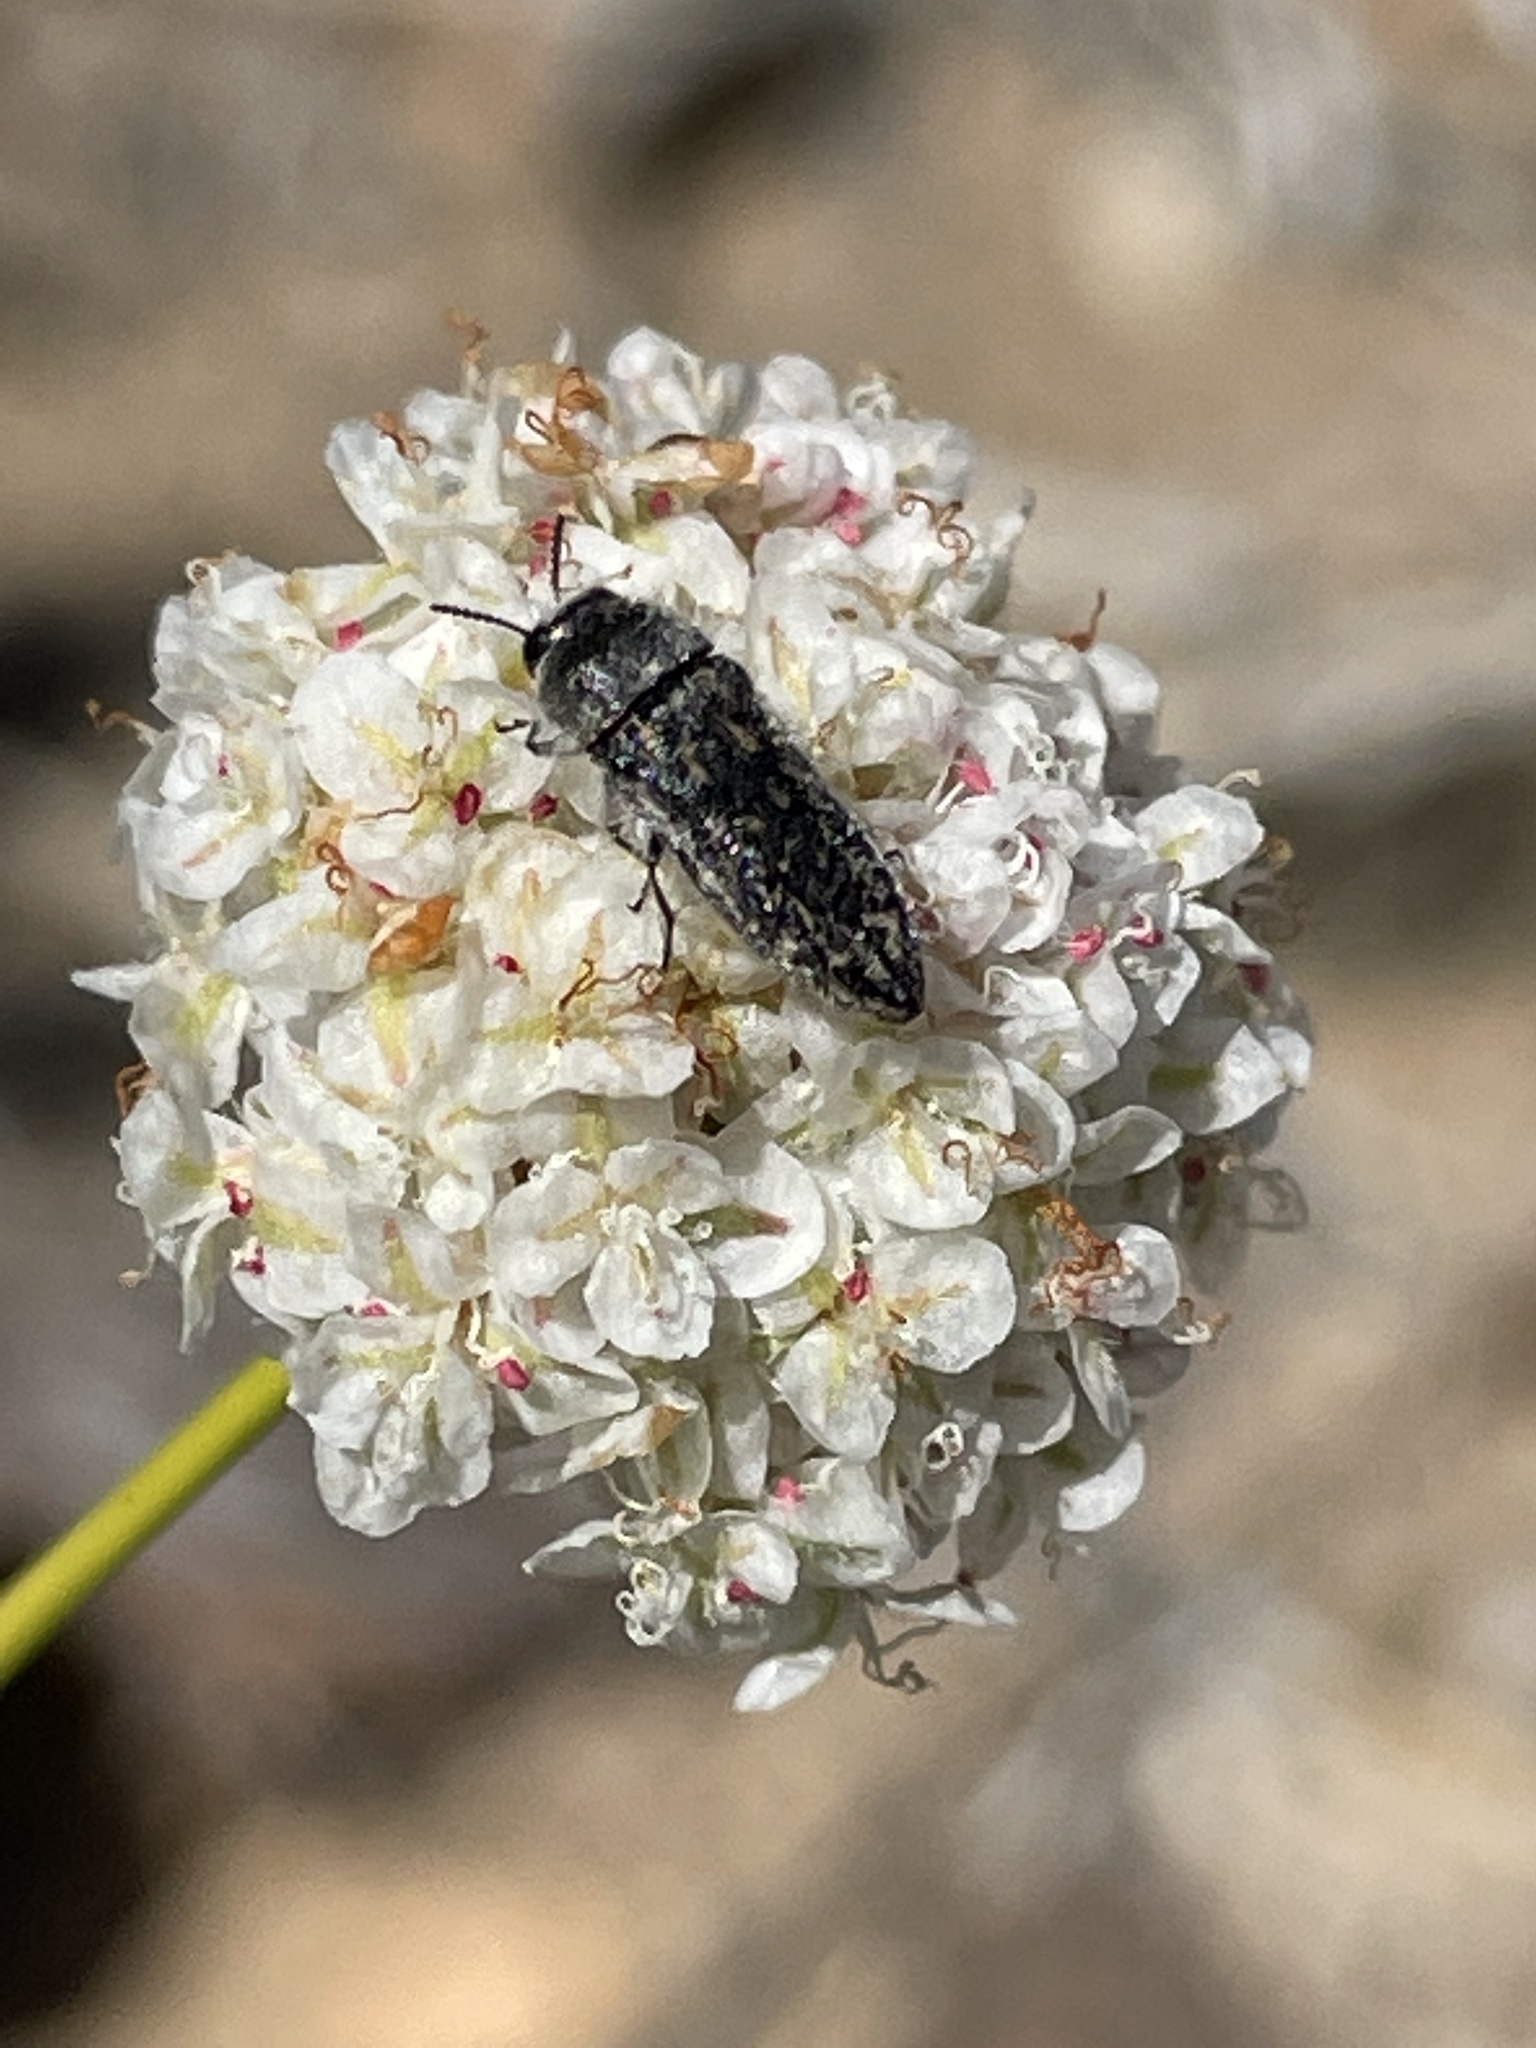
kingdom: Animalia
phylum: Arthropoda
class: Insecta
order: Coleoptera
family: Buprestidae
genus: Acmaeodera
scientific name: Acmaeodera atactospilota
